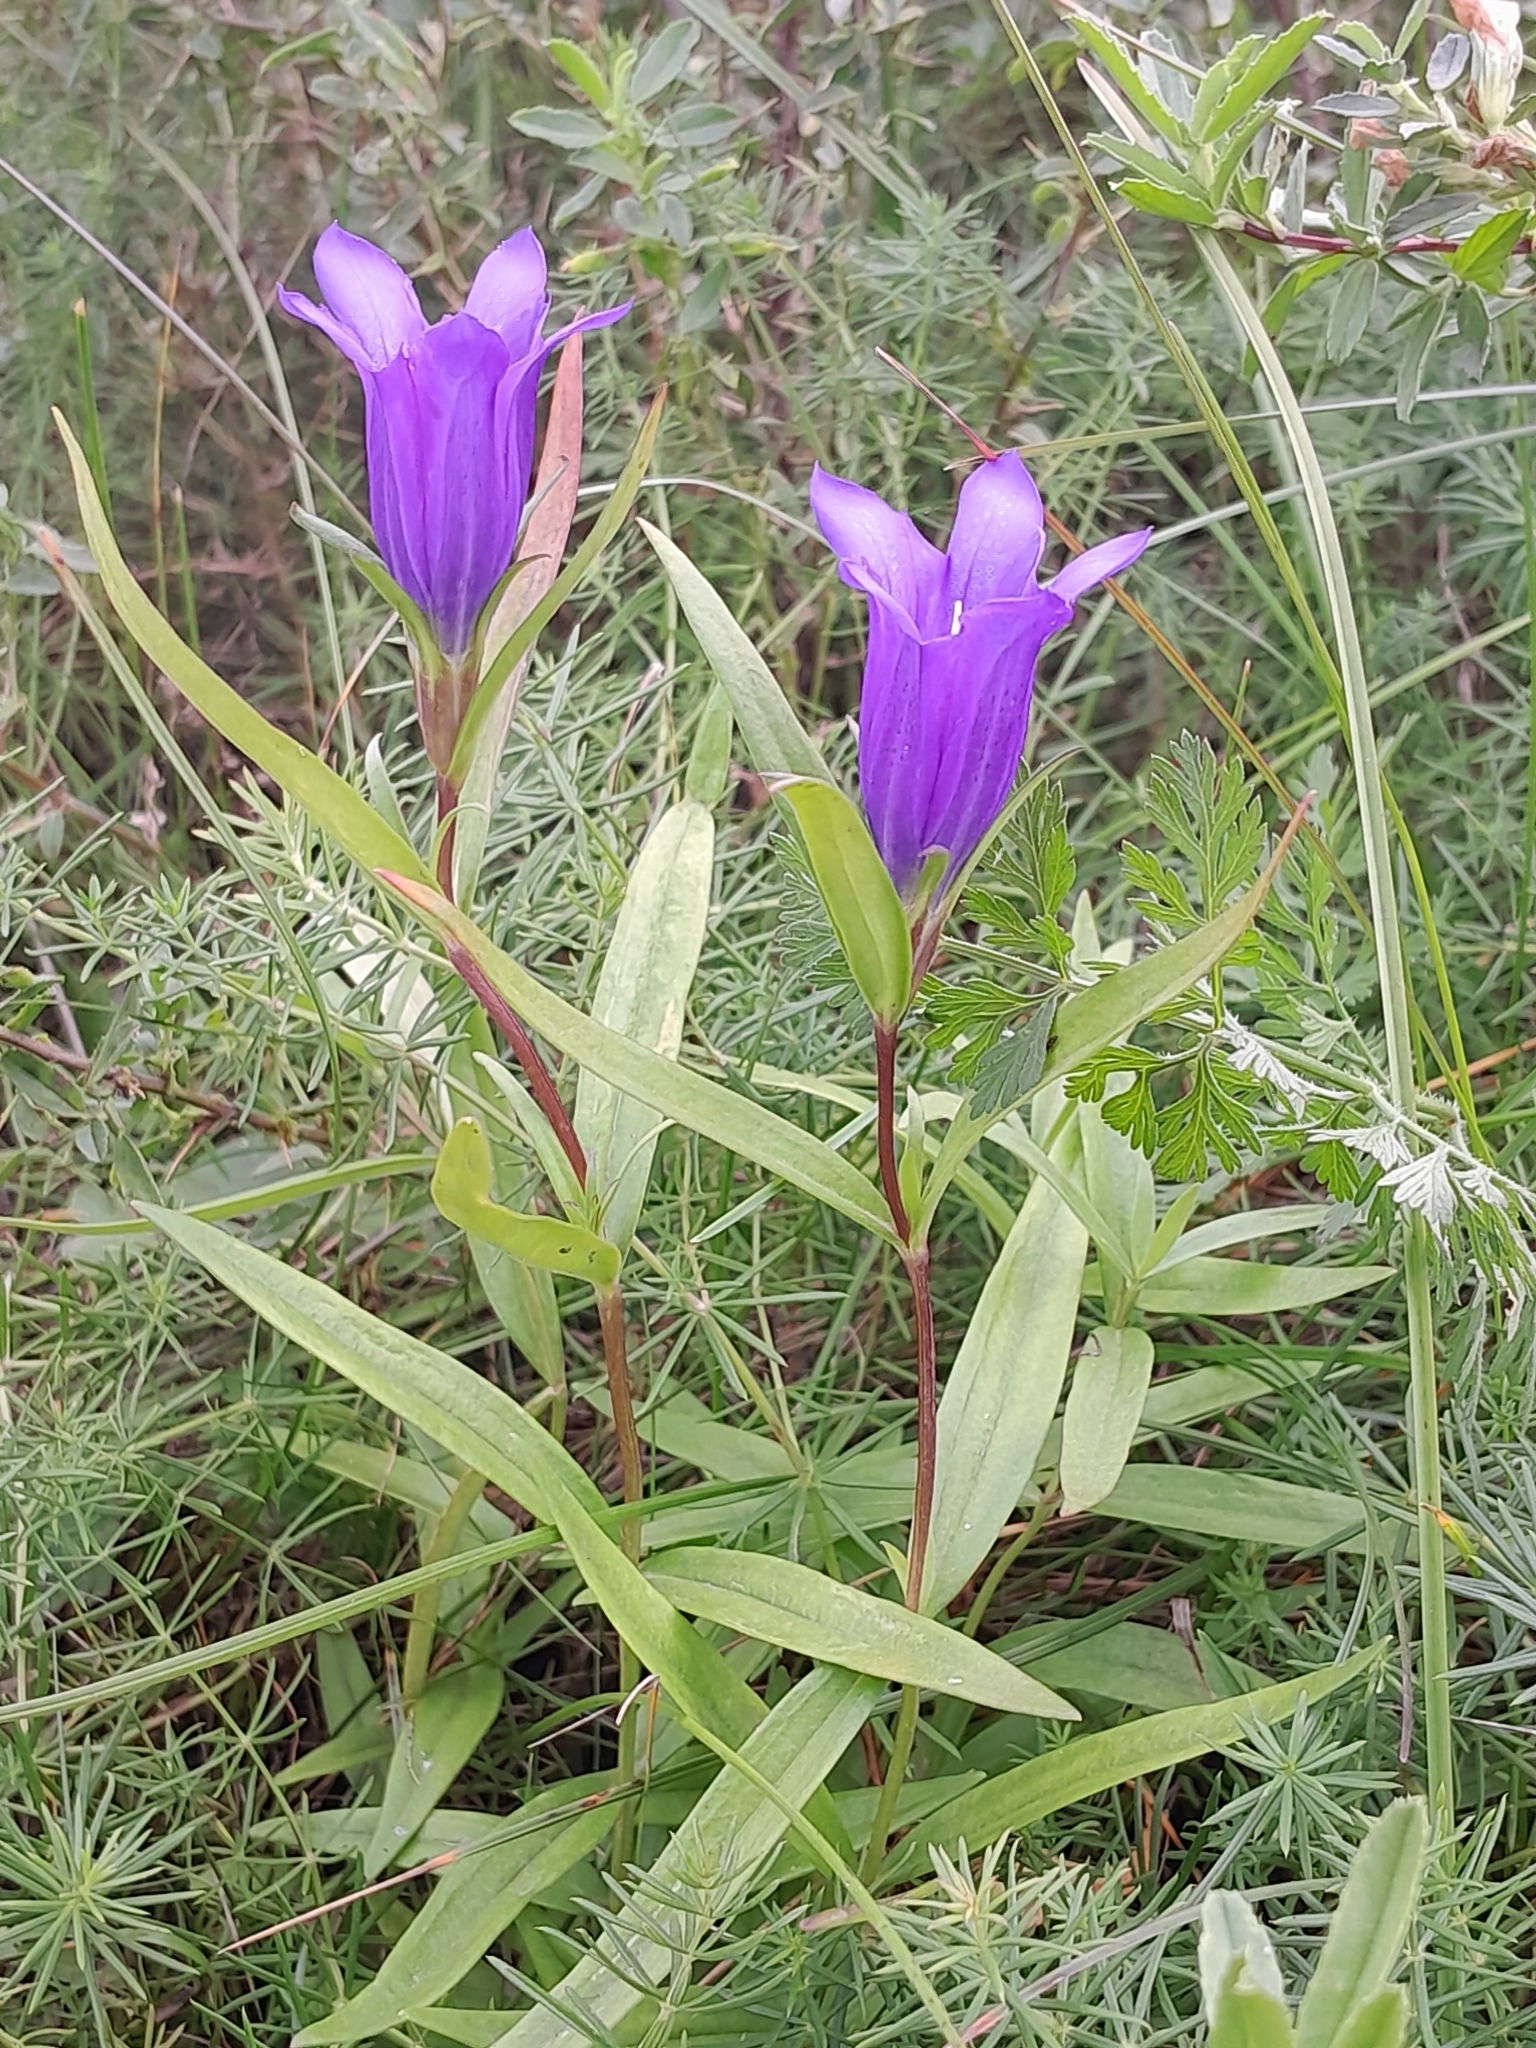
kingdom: Plantae
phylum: Tracheophyta
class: Magnoliopsida
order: Gentianales
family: Gentianaceae
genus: Gentiana
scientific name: Gentiana pneumonanthe
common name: Marsh gentian
